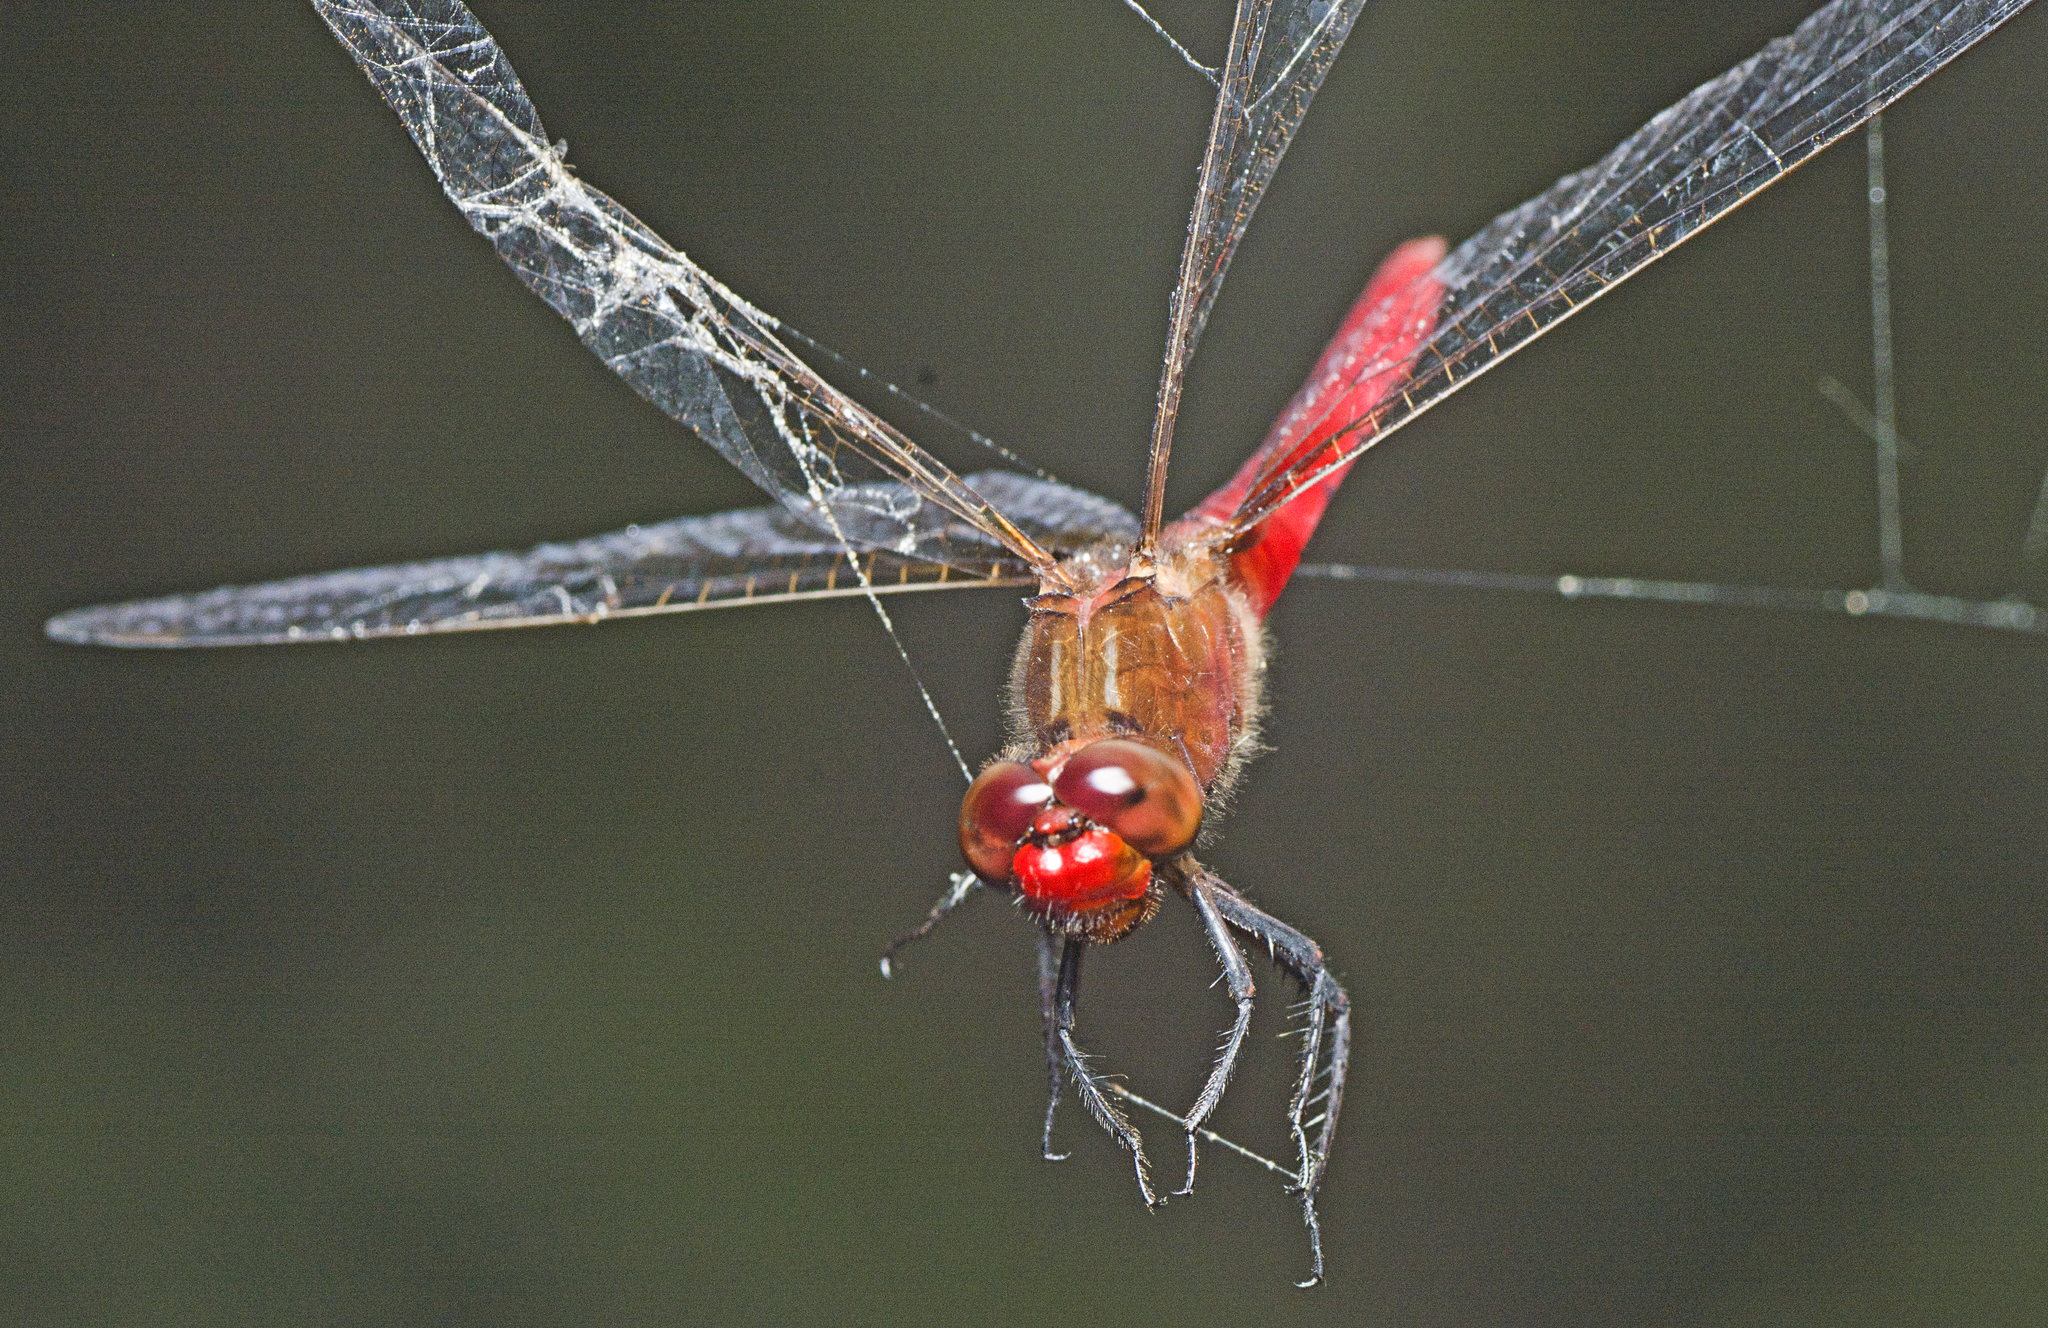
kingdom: Animalia
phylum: Arthropoda
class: Insecta
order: Odonata
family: Libellulidae
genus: Rhodothemis
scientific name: Rhodothemis lieftincki
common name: Red arrow
